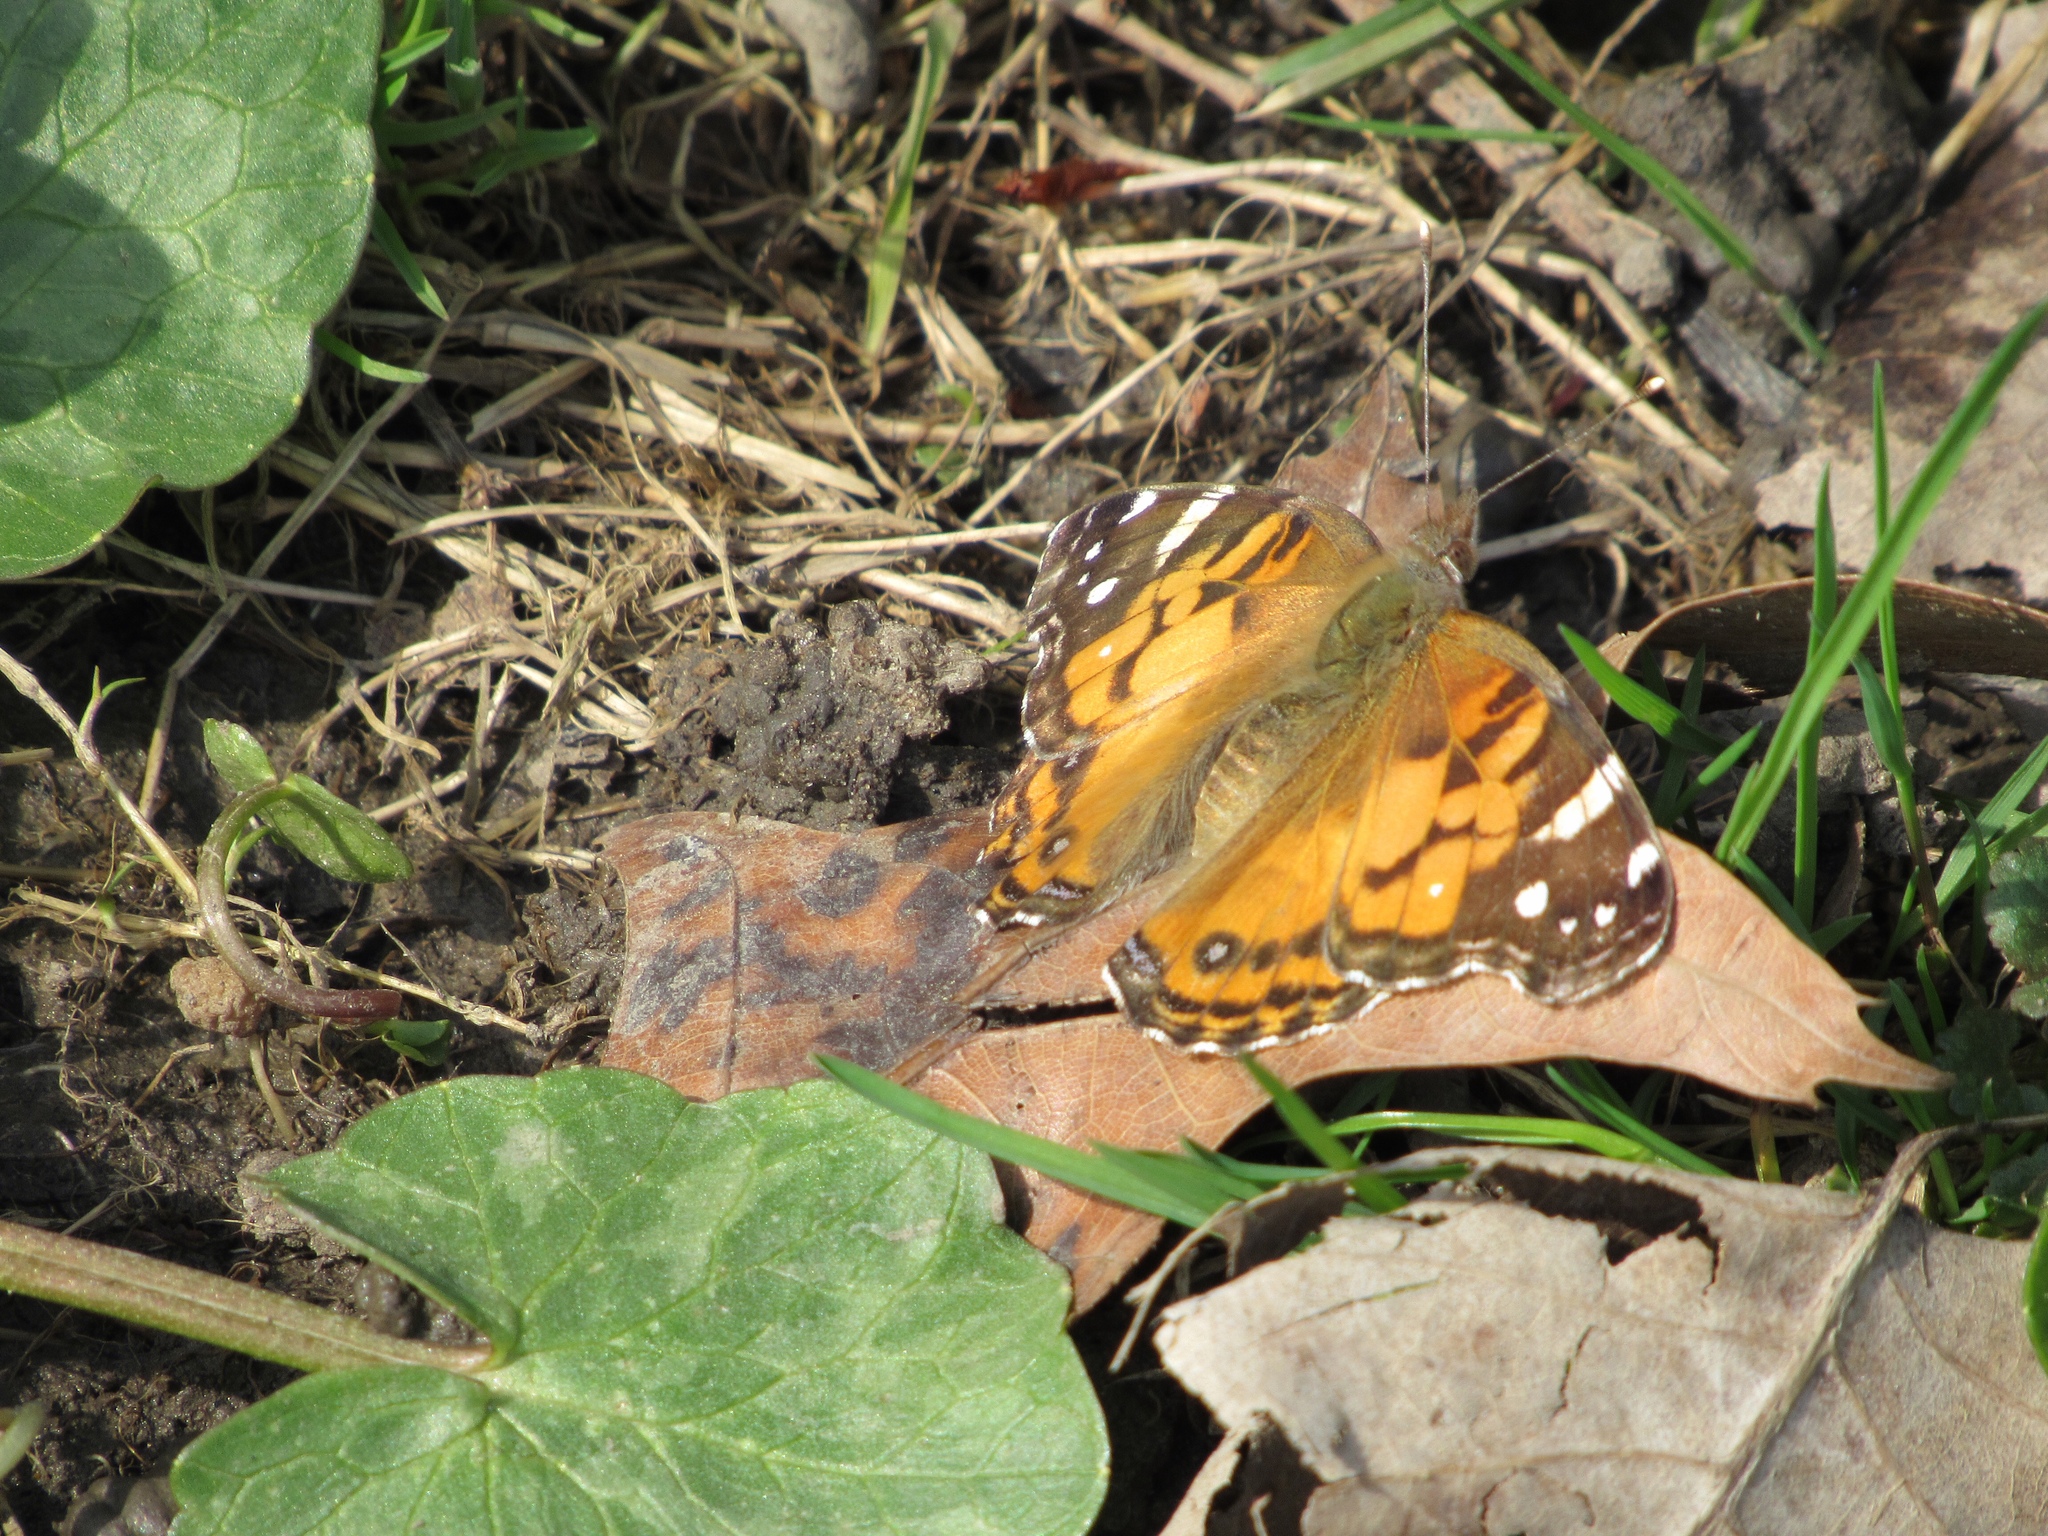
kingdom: Animalia
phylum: Arthropoda
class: Insecta
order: Lepidoptera
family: Nymphalidae
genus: Vanessa
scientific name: Vanessa virginiensis
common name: American lady
